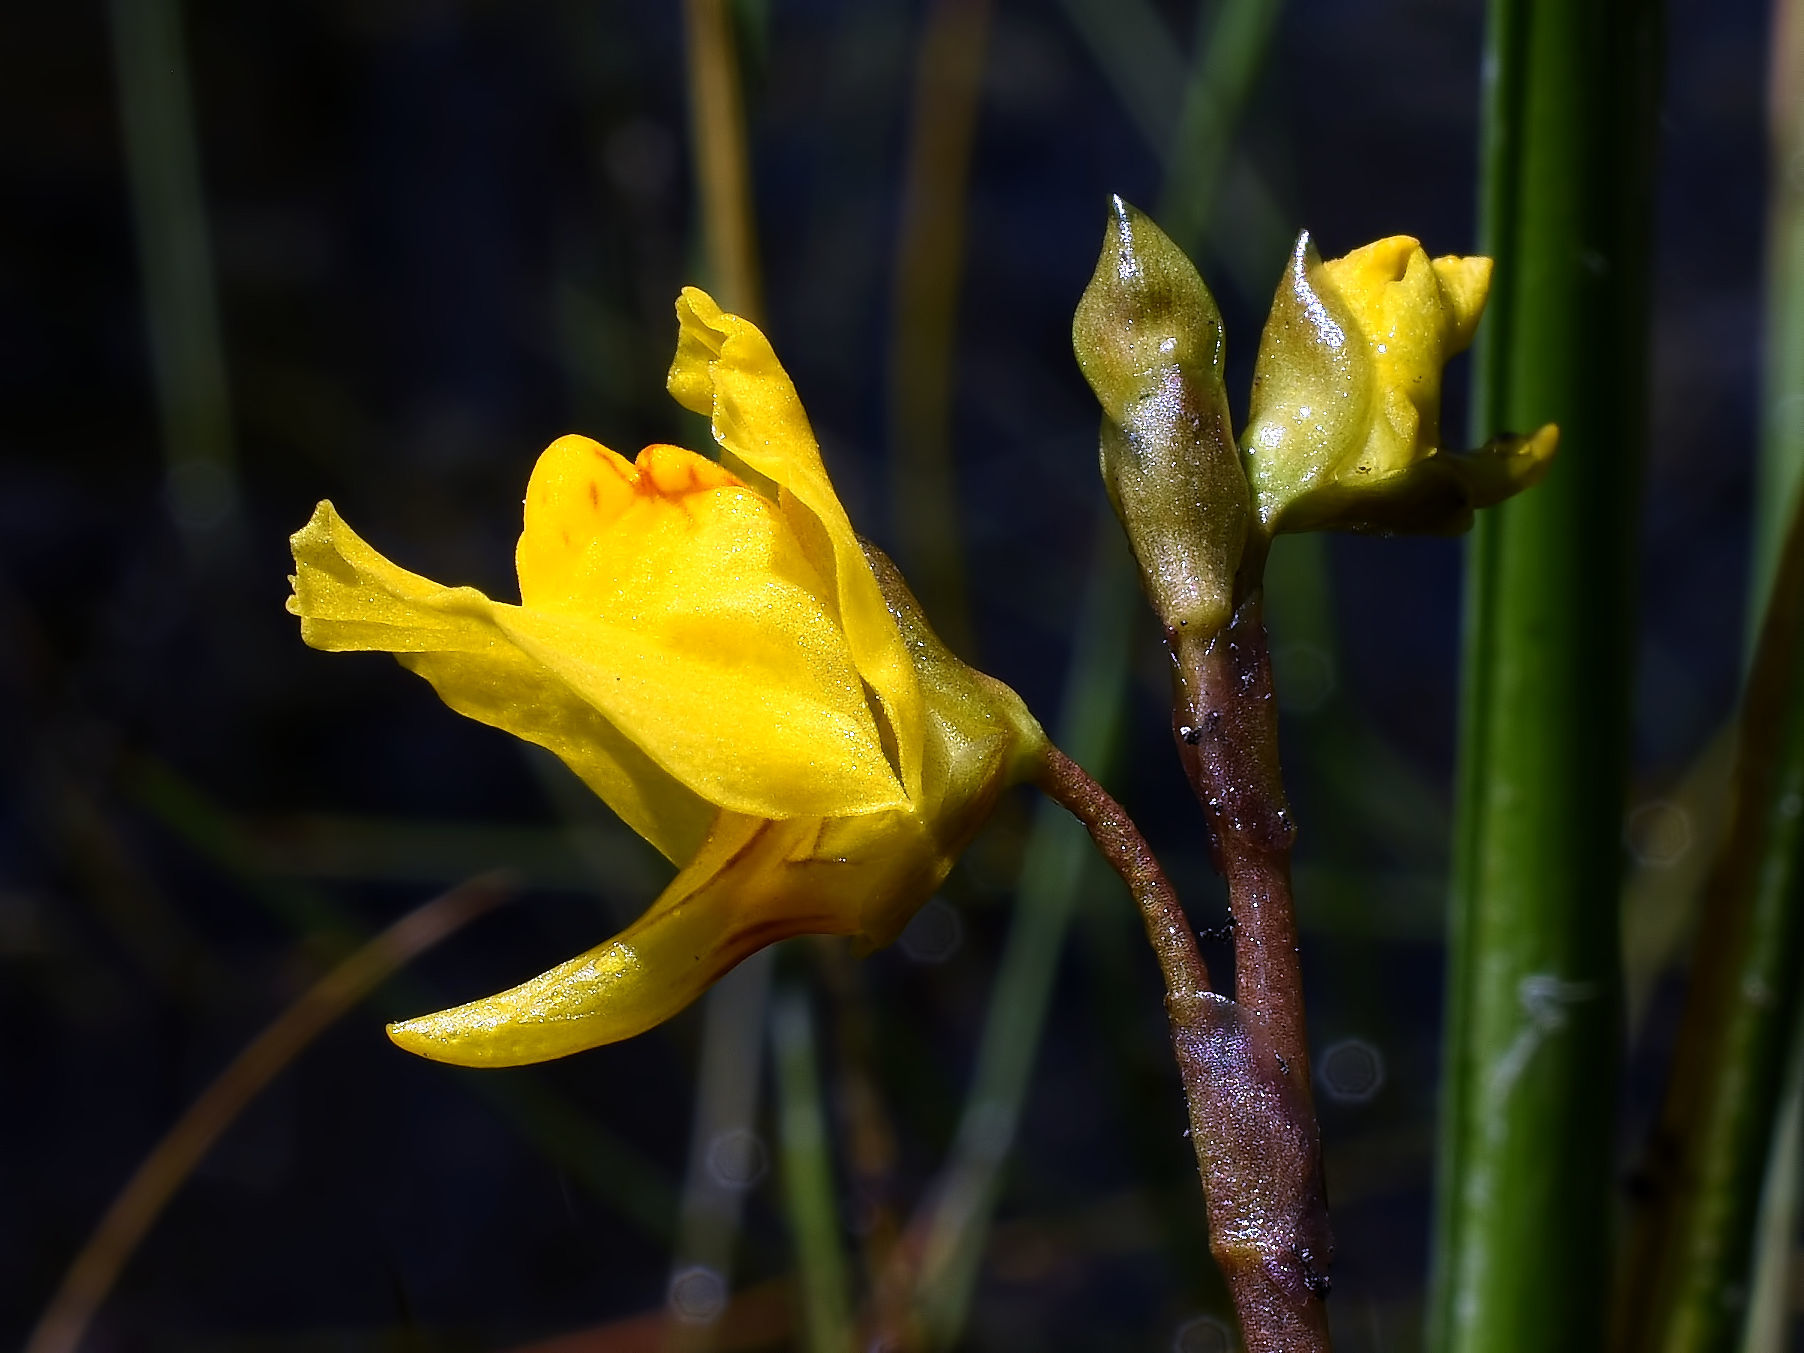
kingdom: Plantae
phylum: Tracheophyta
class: Magnoliopsida
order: Lamiales
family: Lentibulariaceae
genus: Utricularia
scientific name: Utricularia macrorhiza
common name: Common bladderwort
